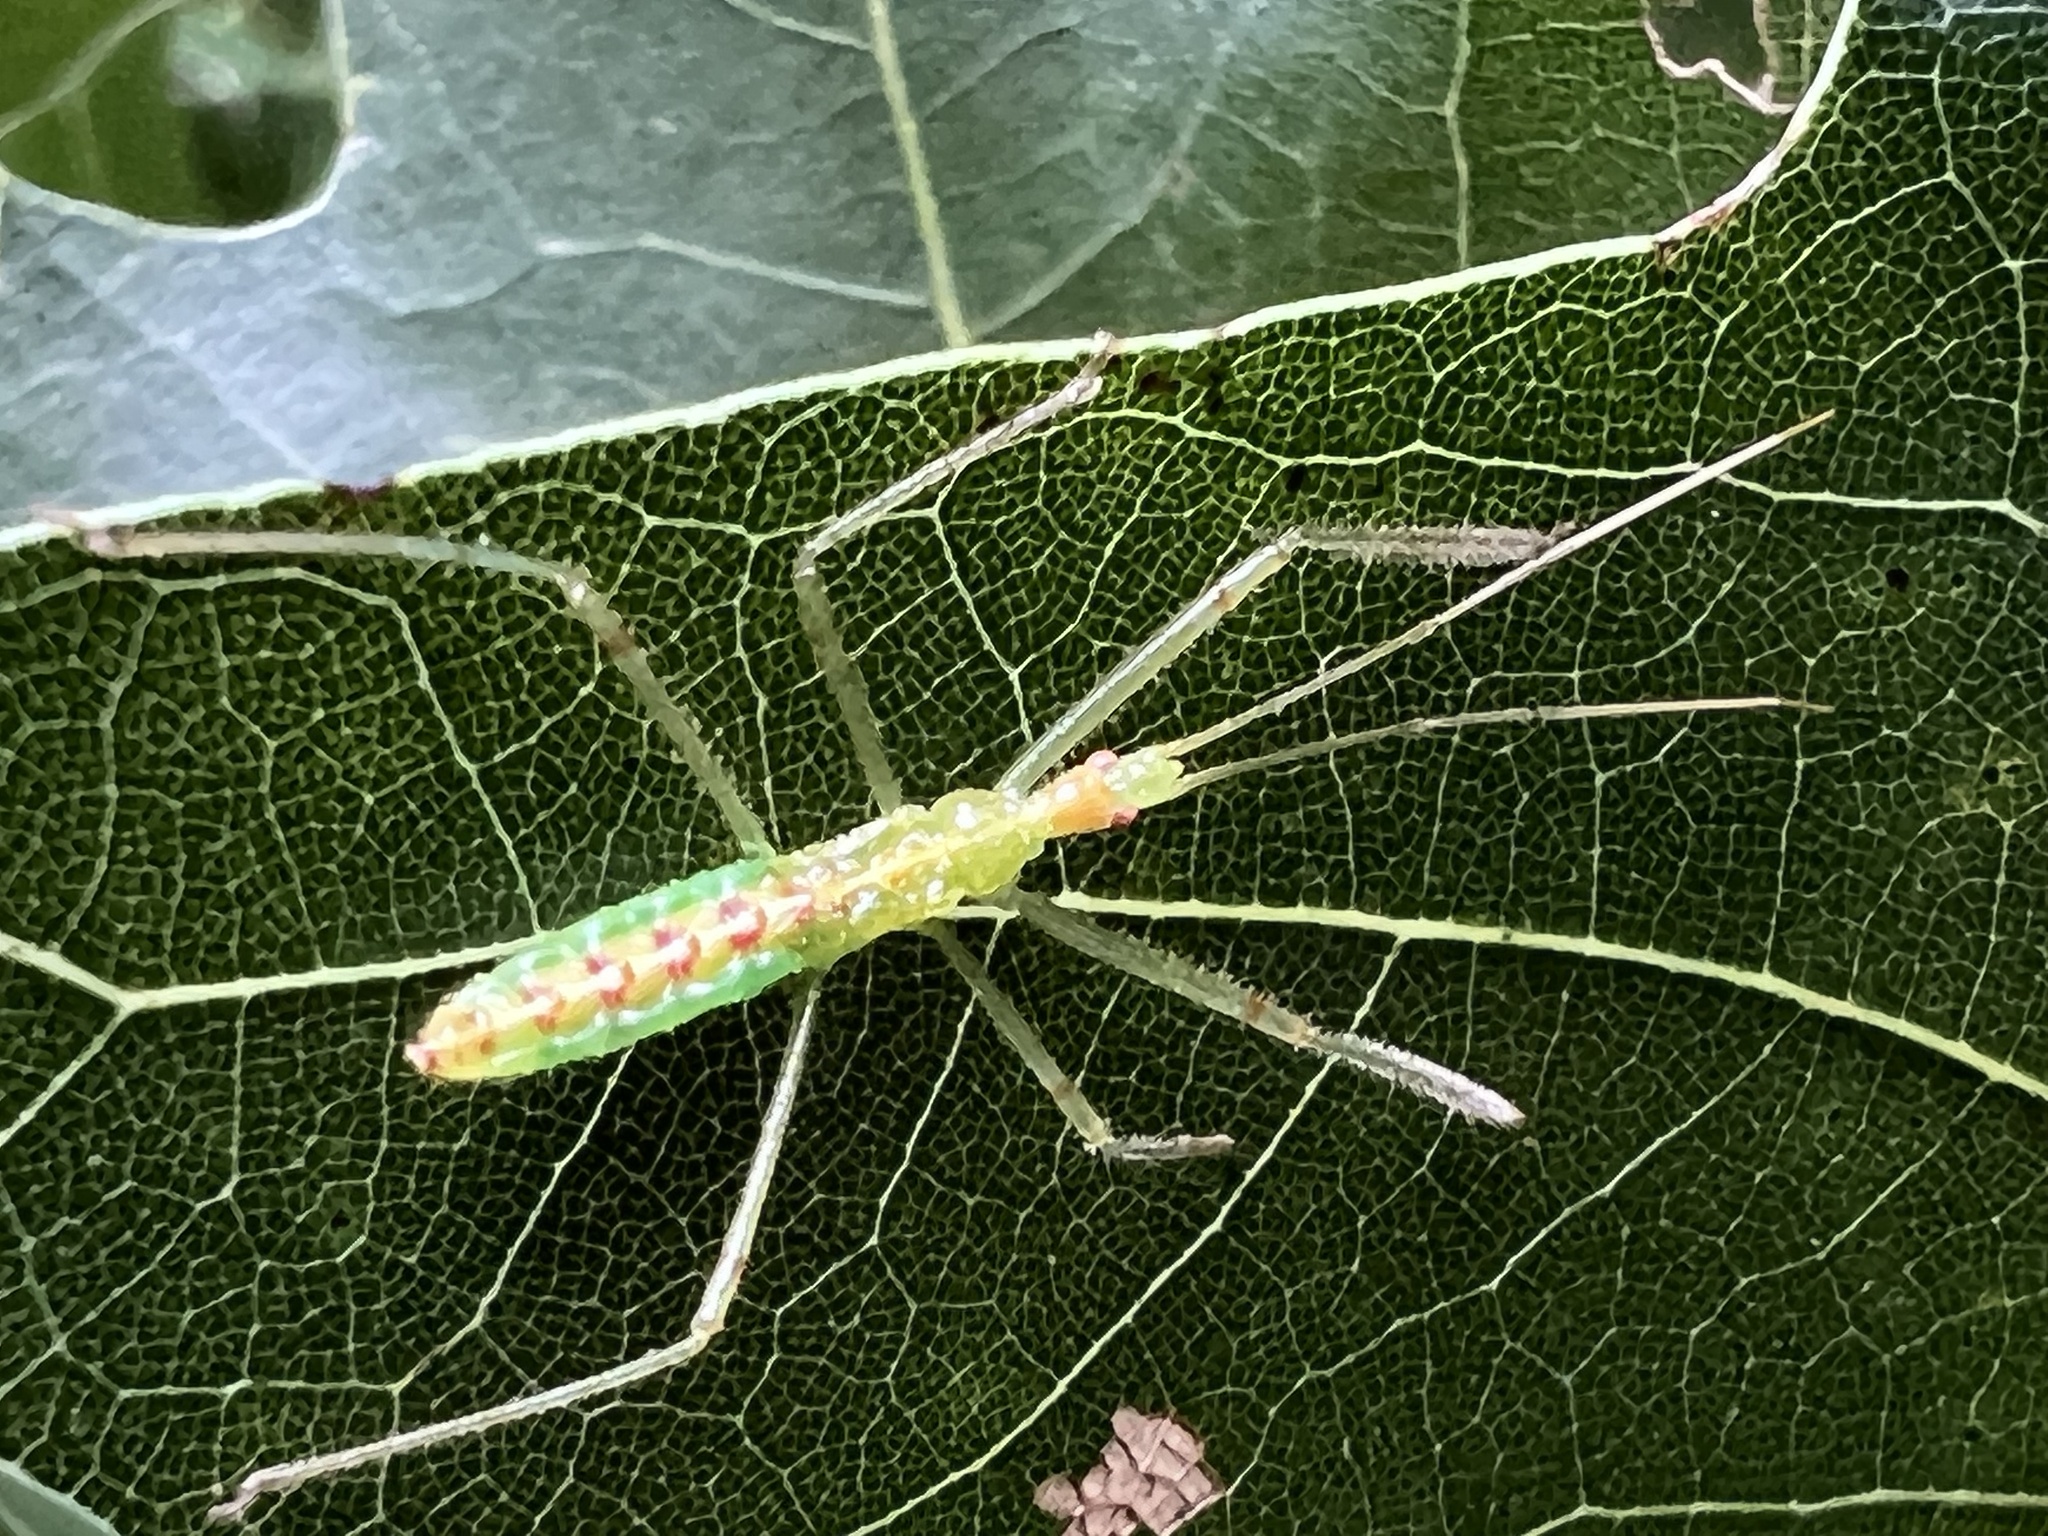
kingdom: Animalia
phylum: Arthropoda
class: Insecta
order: Hemiptera
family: Reduviidae
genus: Zelus
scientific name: Zelus luridus
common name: Pale green assassin bug
